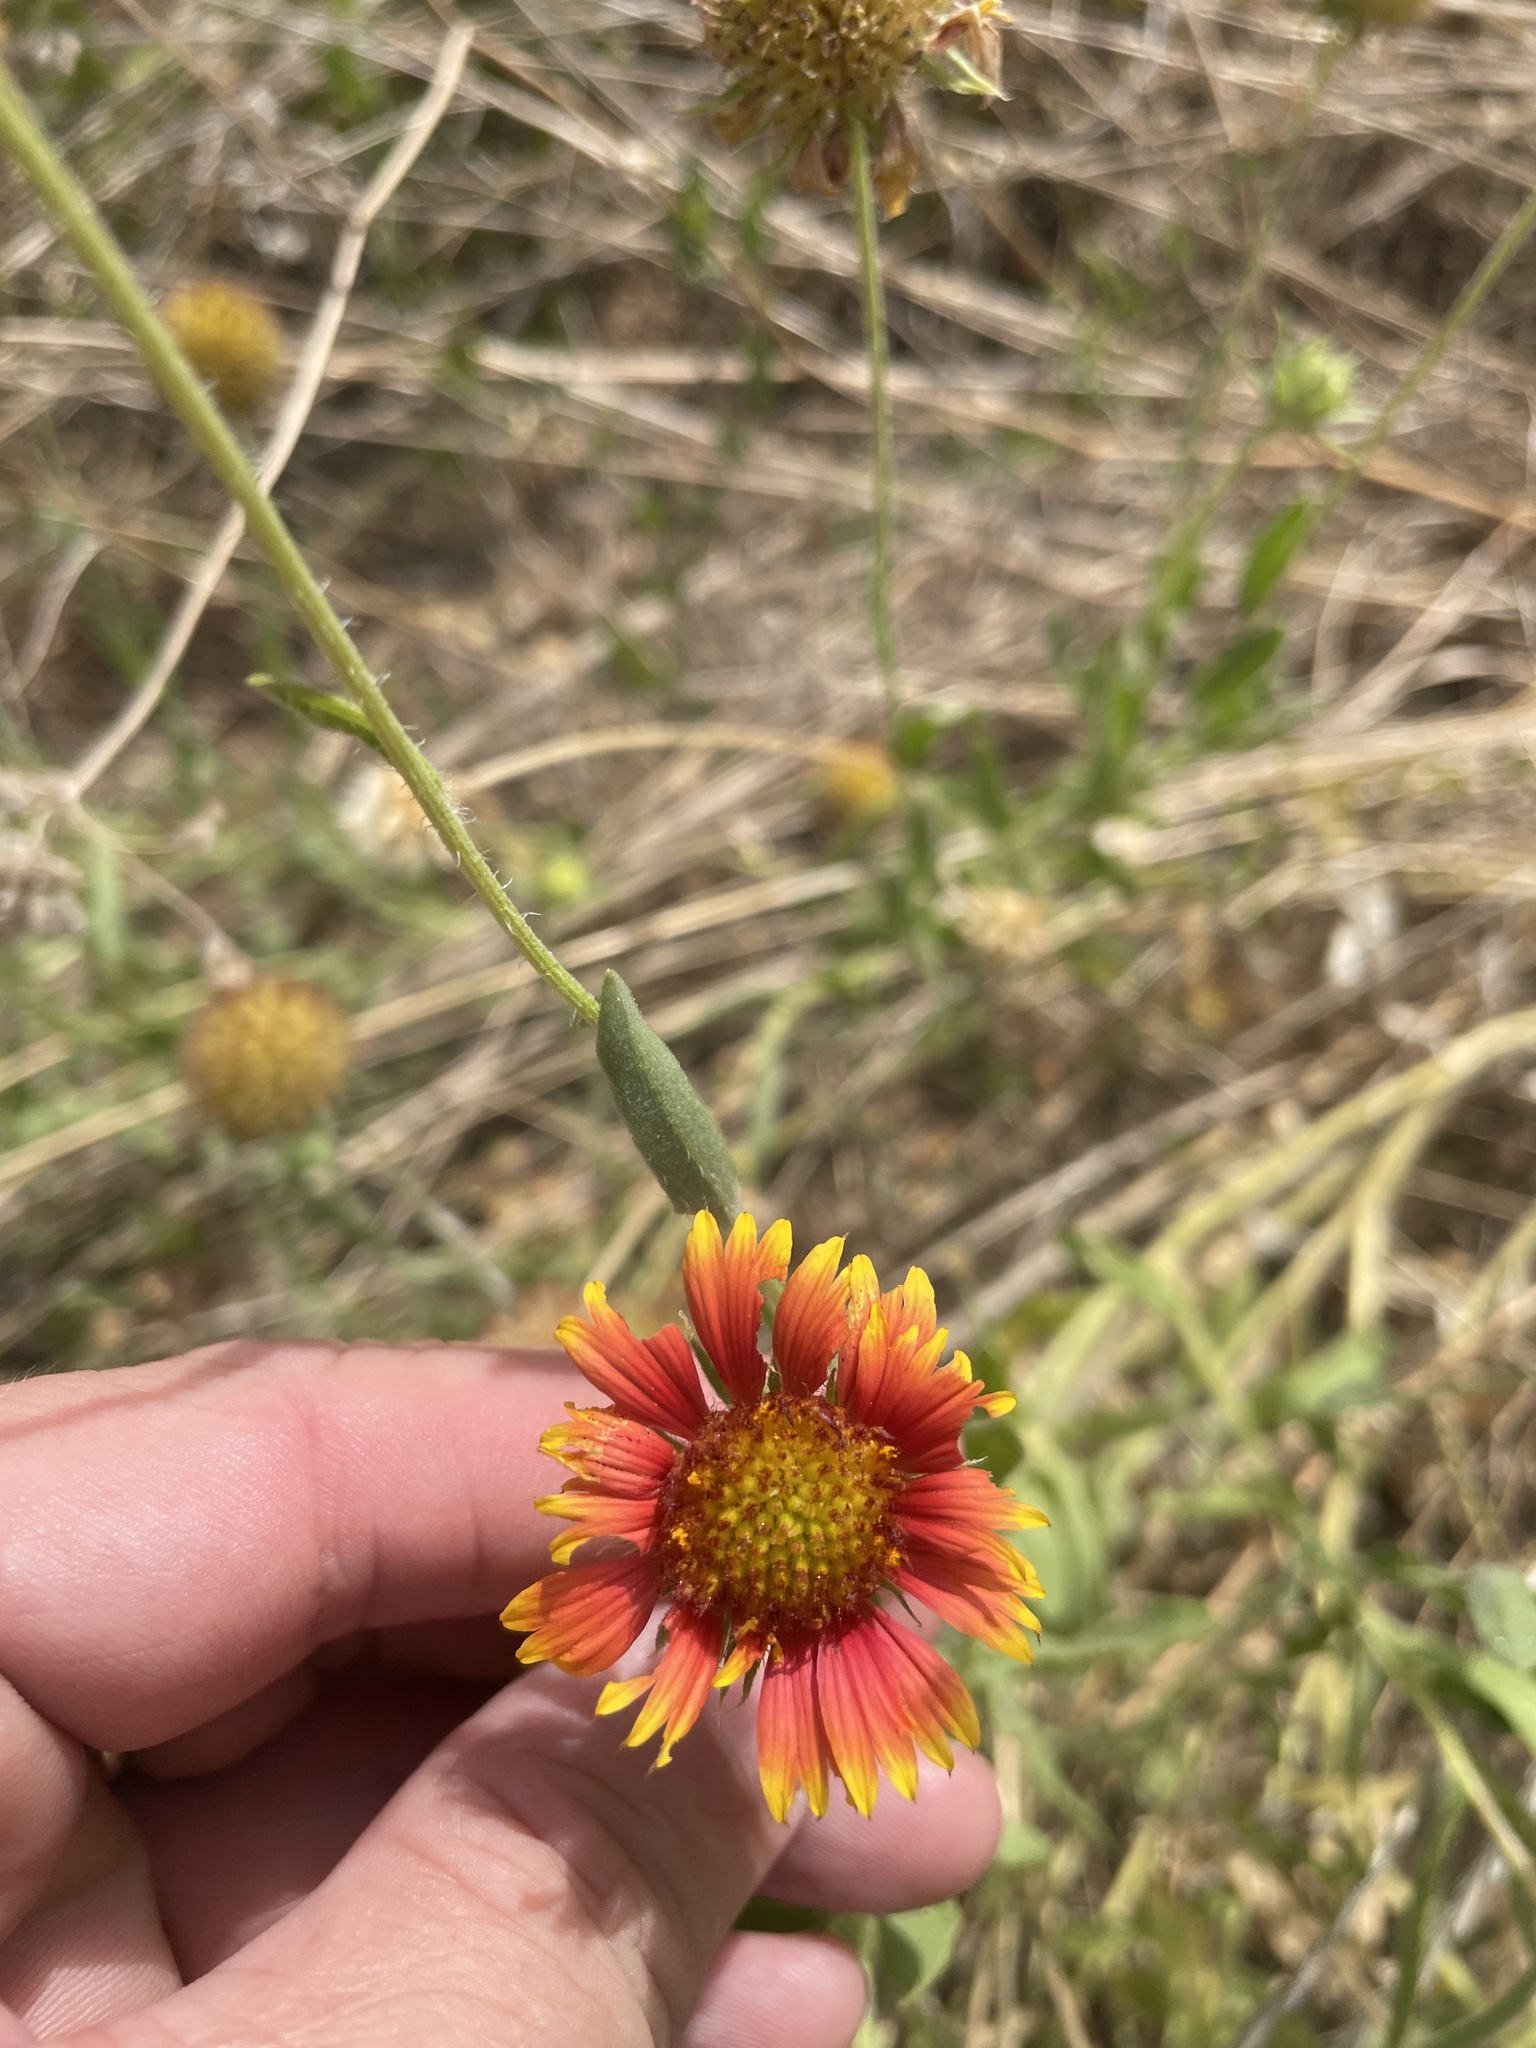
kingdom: Plantae
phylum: Tracheophyta
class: Magnoliopsida
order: Asterales
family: Asteraceae
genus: Gaillardia
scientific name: Gaillardia pulchella
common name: Firewheel
